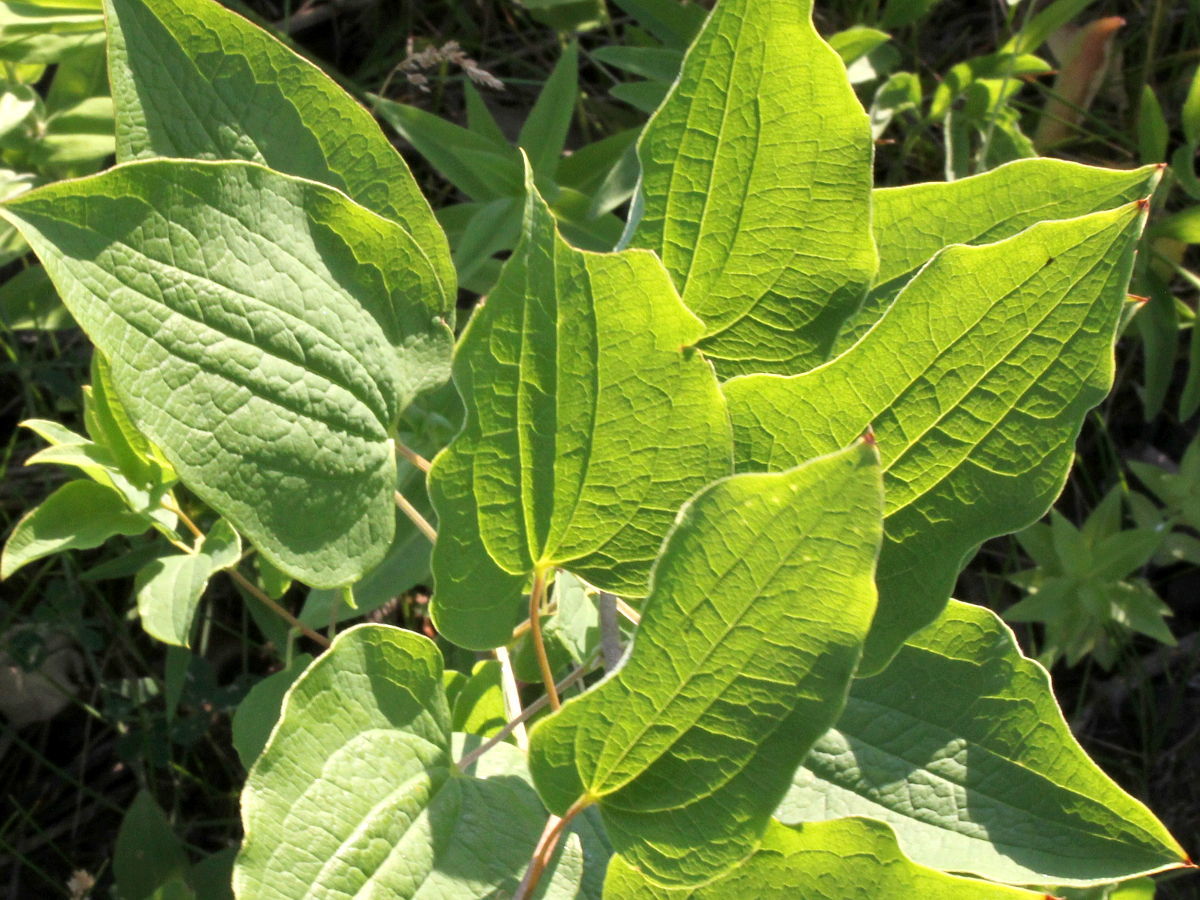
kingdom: Plantae
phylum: Tracheophyta
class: Liliopsida
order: Liliales
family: Smilacaceae
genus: Smilax
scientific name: Smilax lasioneura
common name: Blue ridge carrionflower
